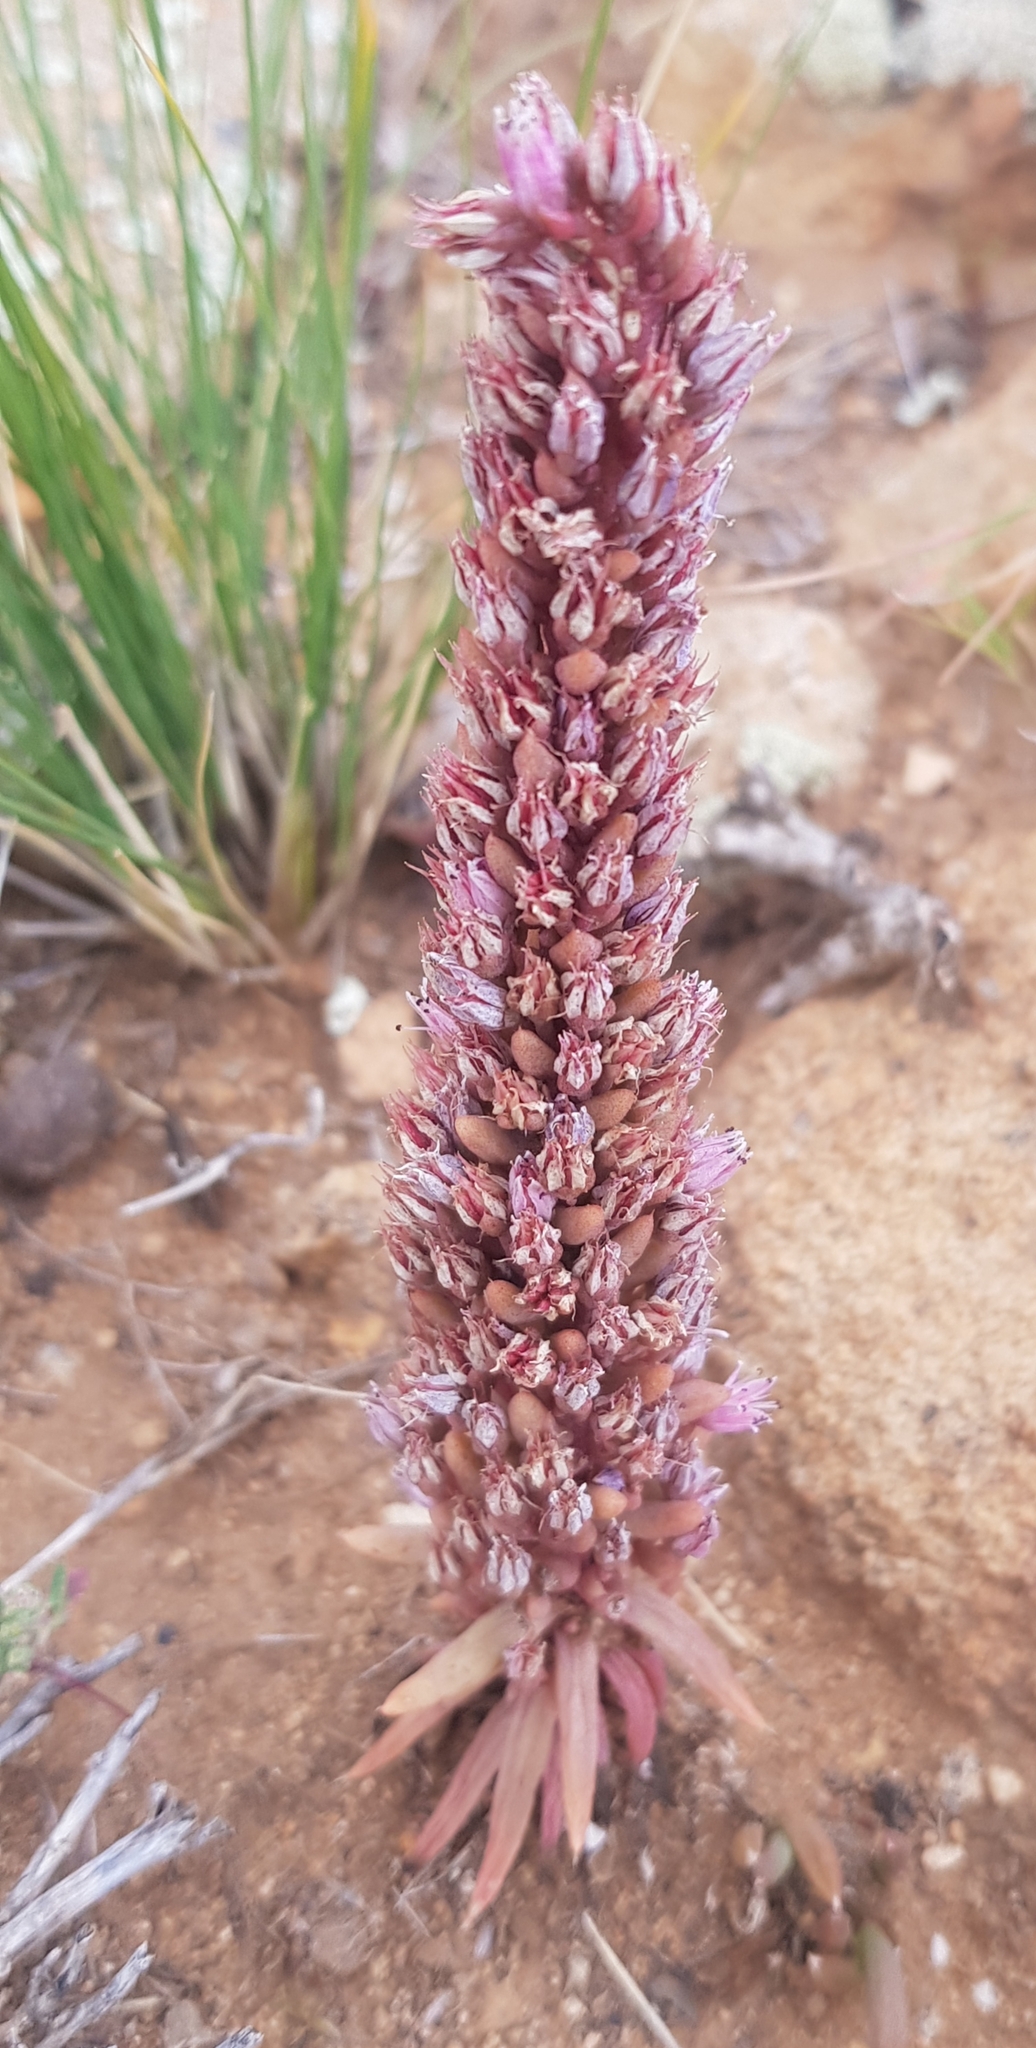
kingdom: Plantae
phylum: Tracheophyta
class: Magnoliopsida
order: Saxifragales
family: Crassulaceae
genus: Orostachys
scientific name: Orostachys fimbriata
